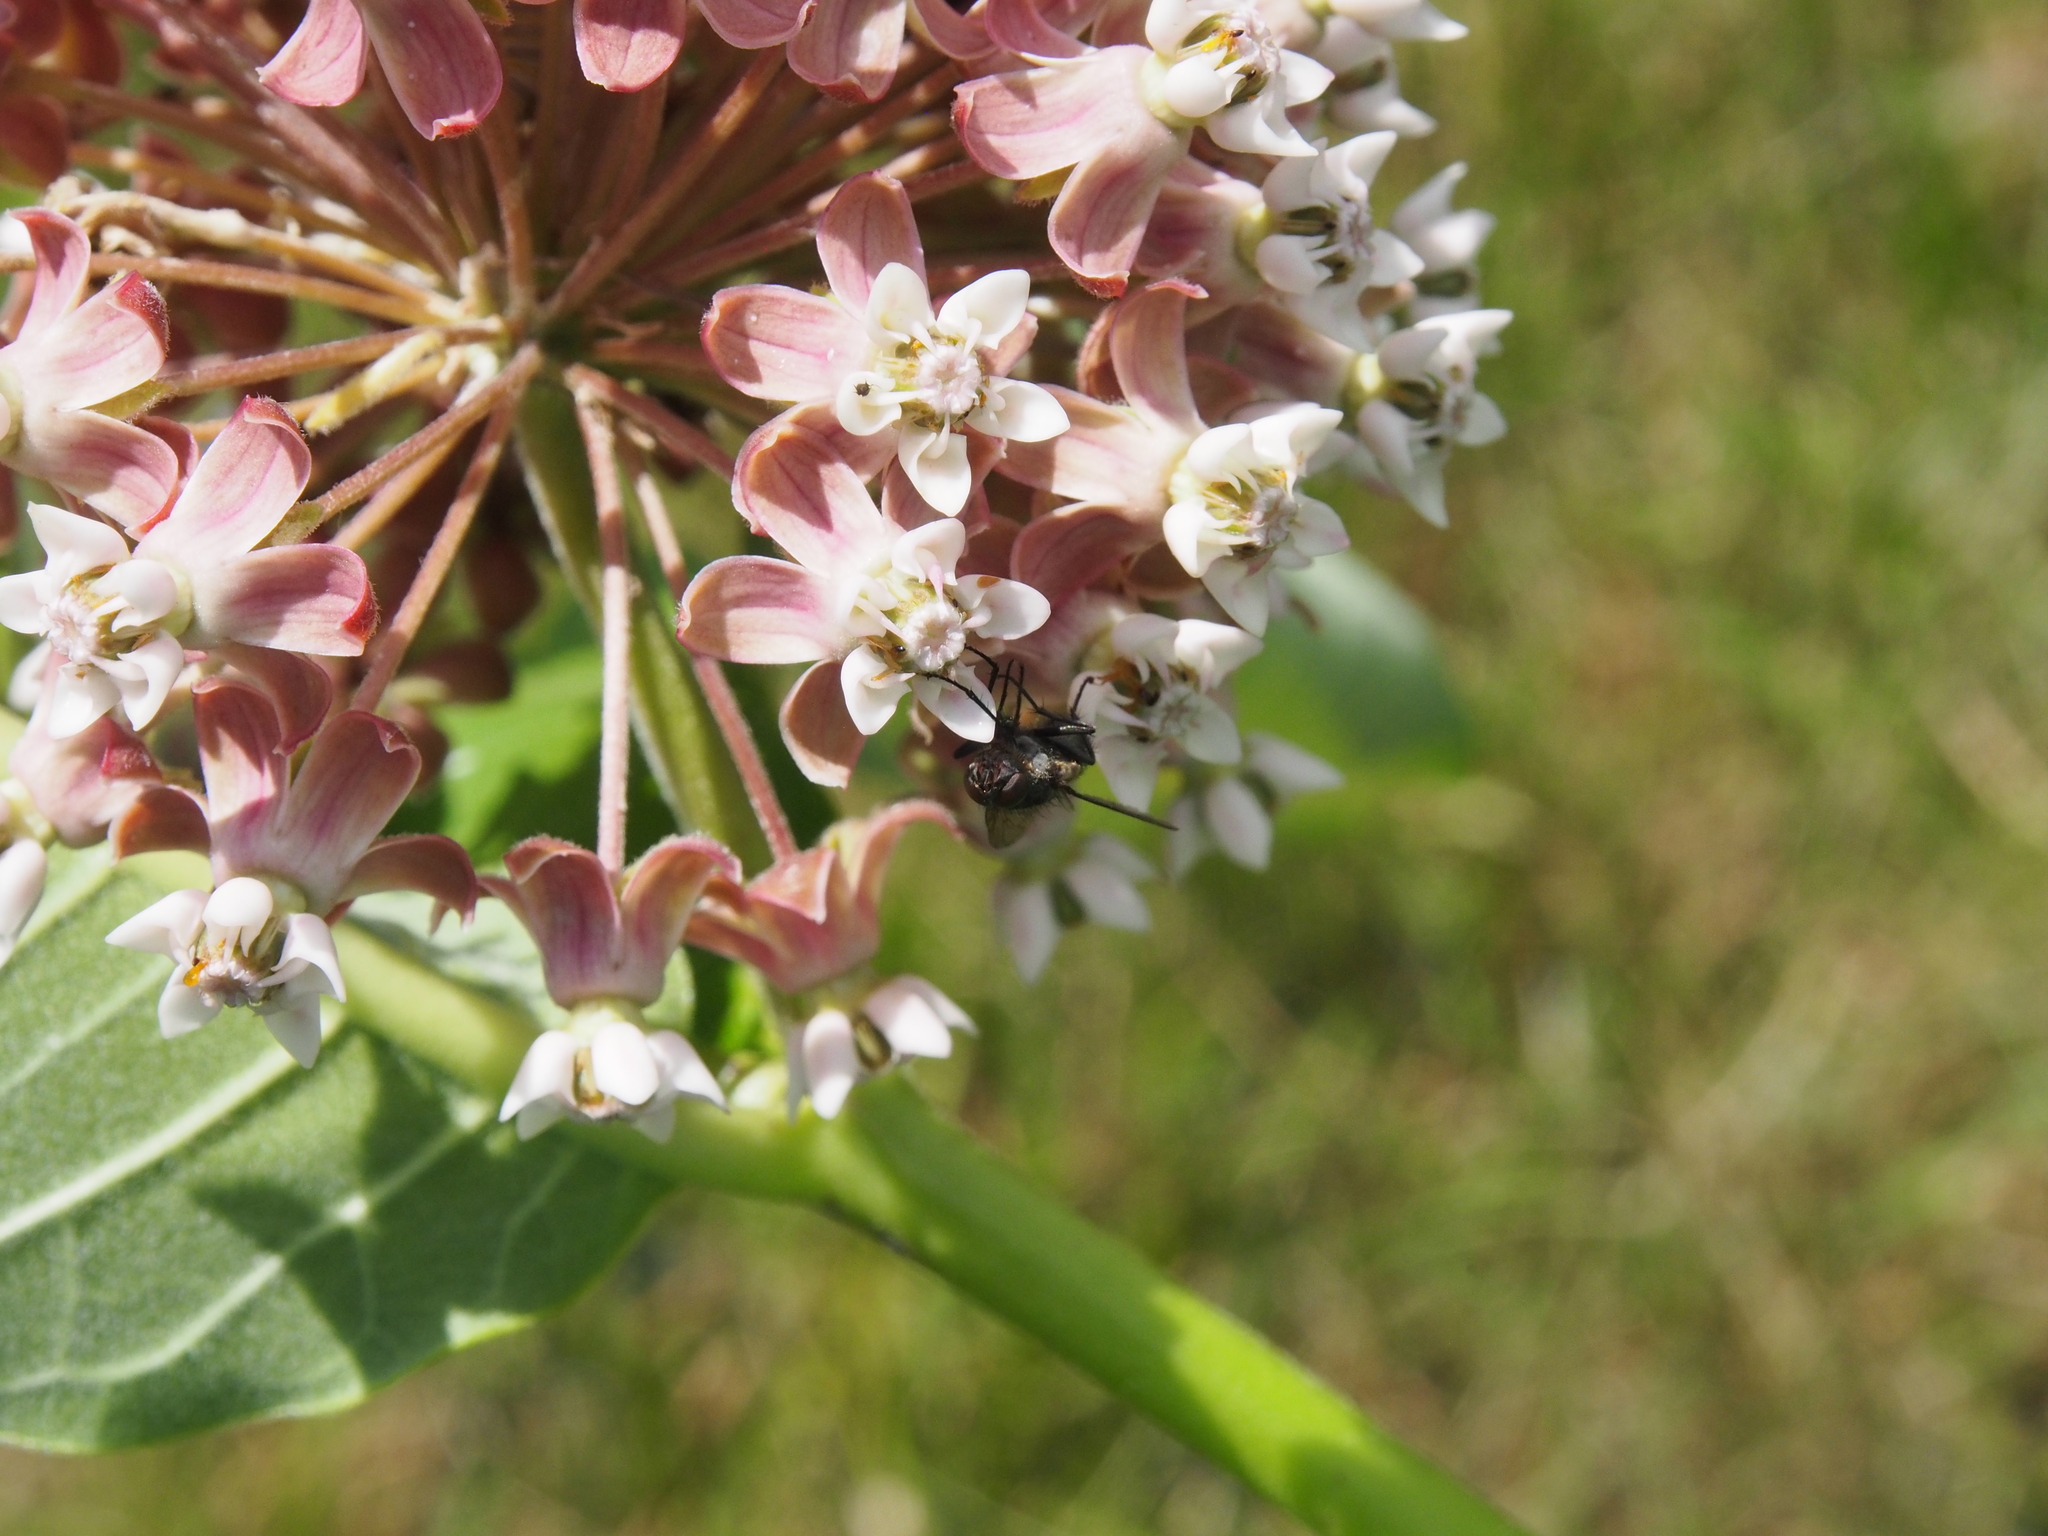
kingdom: Plantae
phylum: Tracheophyta
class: Magnoliopsida
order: Gentianales
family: Apocynaceae
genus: Asclepias
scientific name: Asclepias syriaca
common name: Common milkweed
